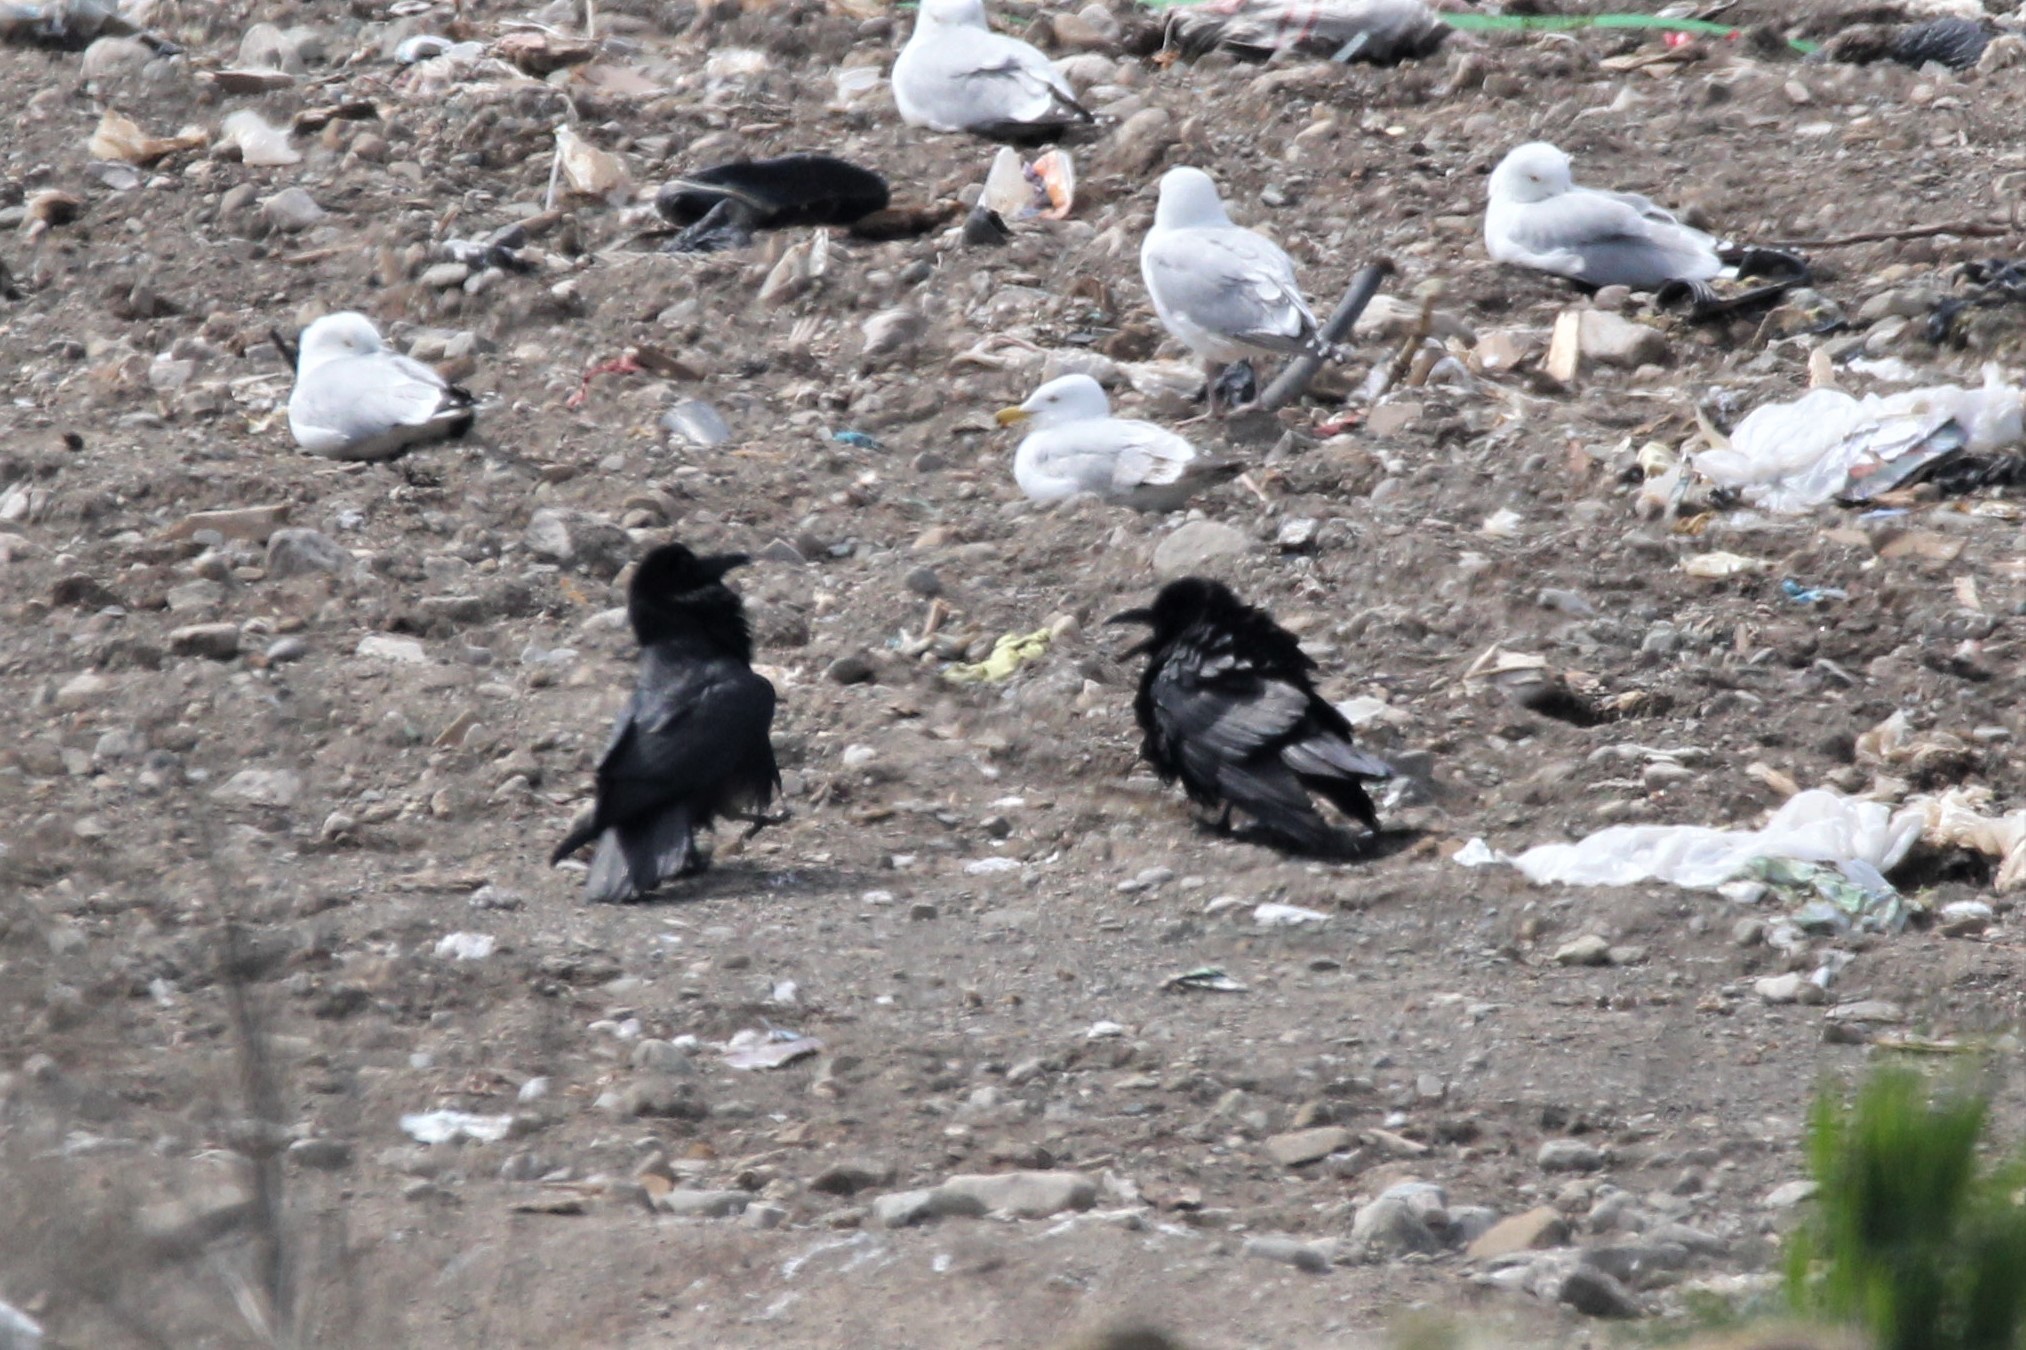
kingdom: Animalia
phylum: Chordata
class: Aves
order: Passeriformes
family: Corvidae
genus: Corvus
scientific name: Corvus corax
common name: Common raven
